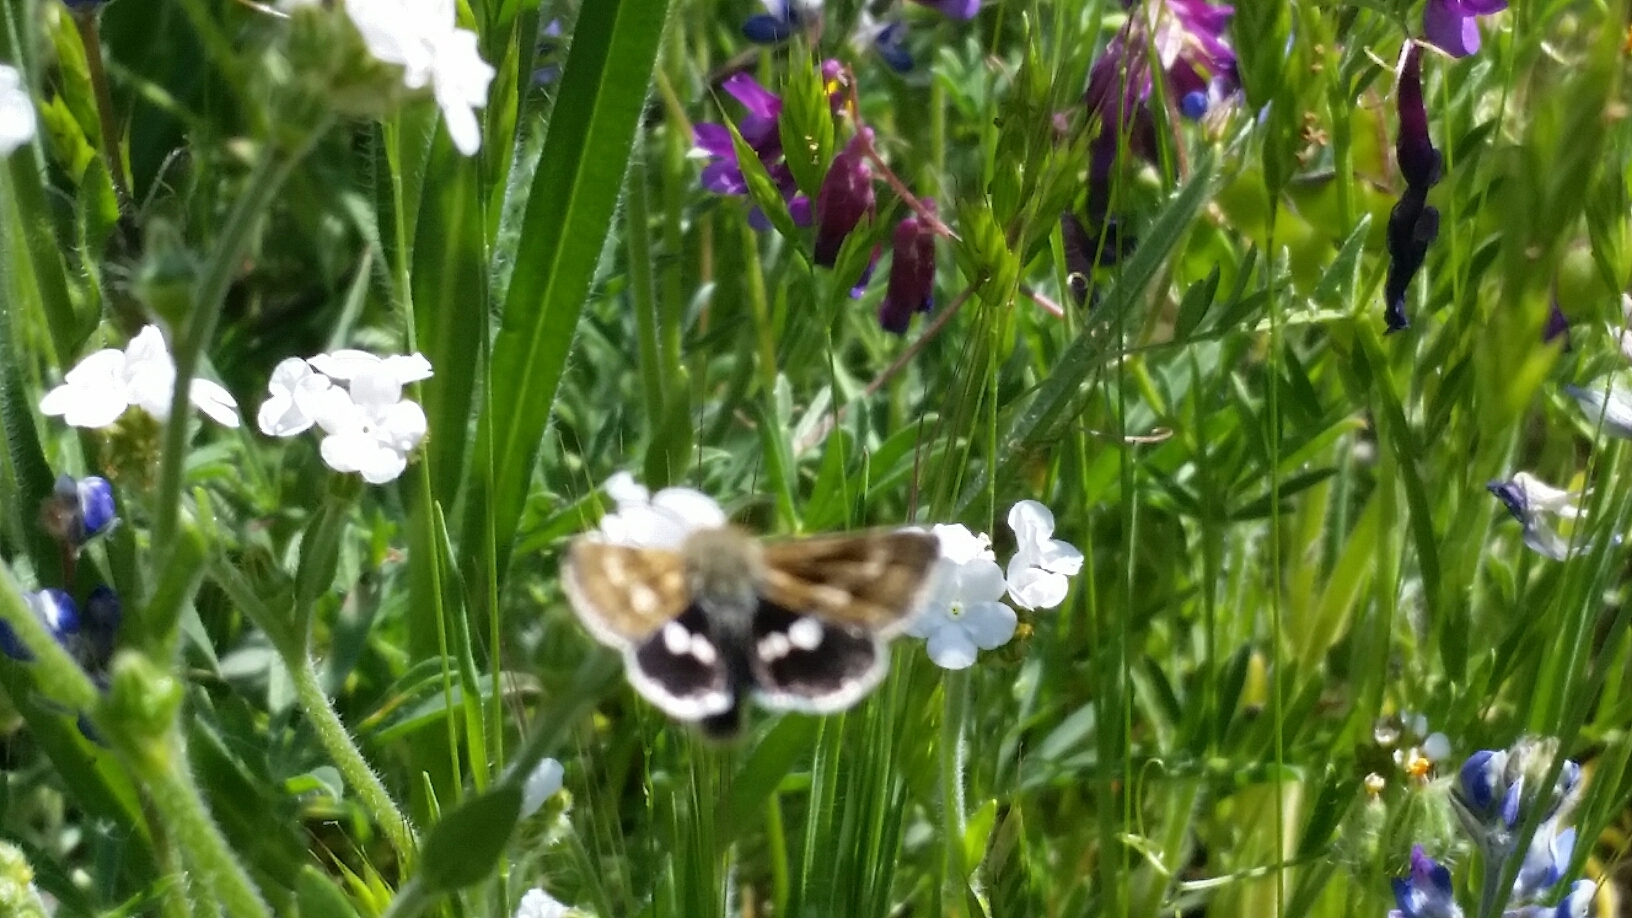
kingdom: Animalia
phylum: Arthropoda
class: Insecta
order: Lepidoptera
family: Noctuidae
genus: Heliothodes
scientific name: Heliothodes diminutiva
